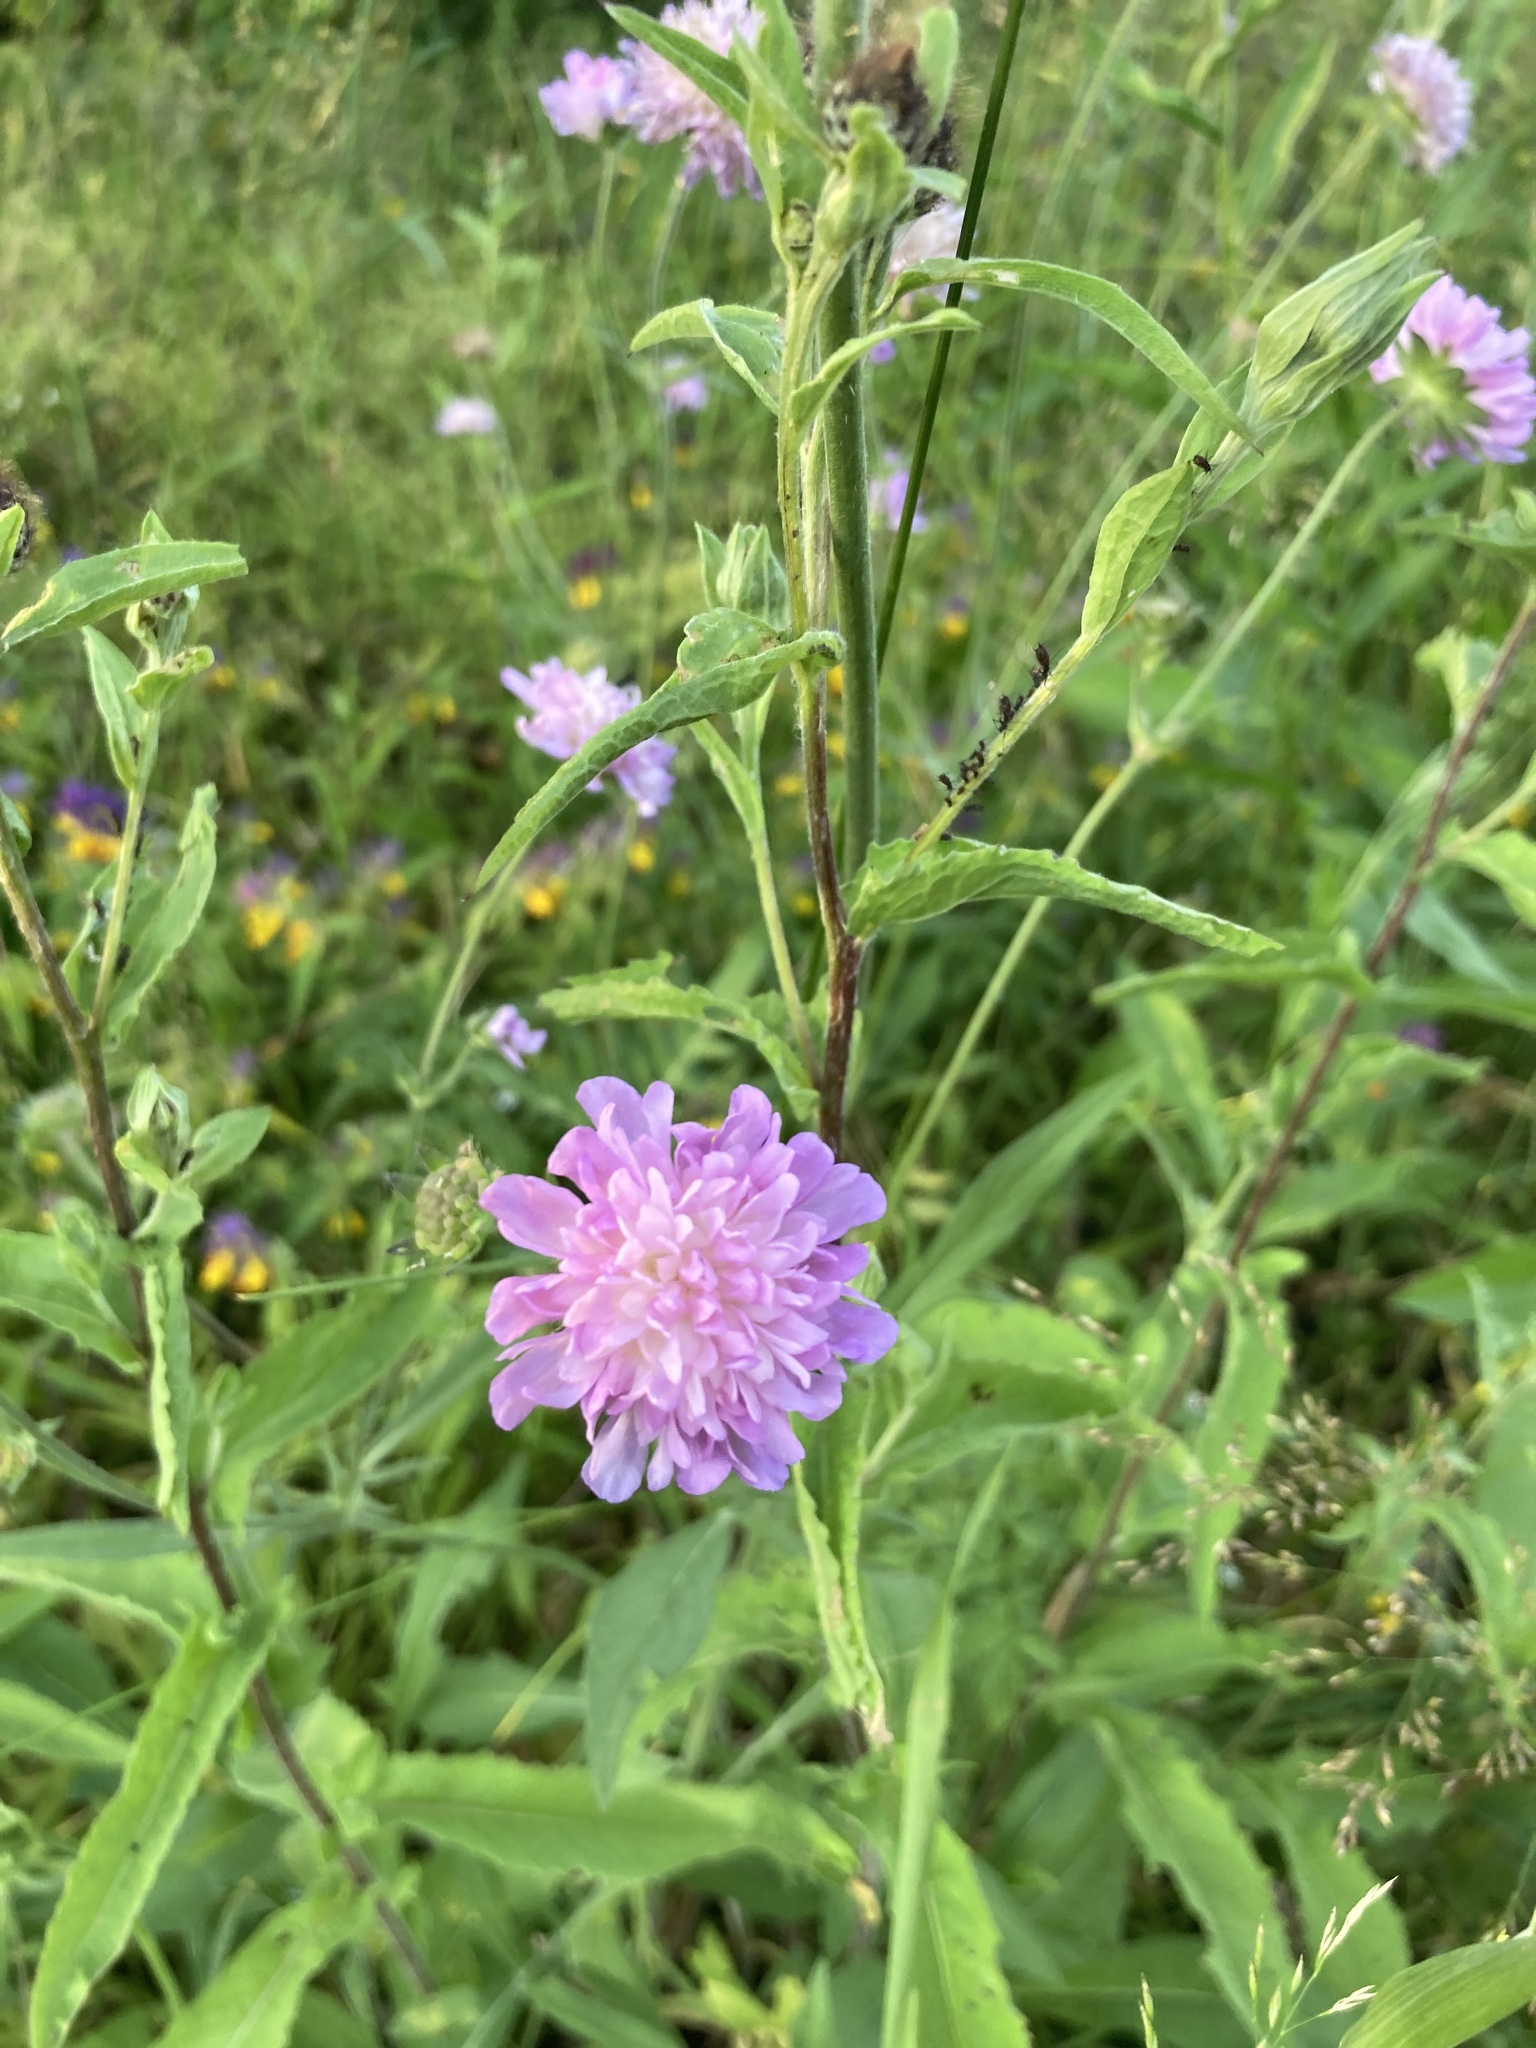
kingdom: Plantae
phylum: Tracheophyta
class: Magnoliopsida
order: Dipsacales
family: Caprifoliaceae
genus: Knautia
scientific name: Knautia arvensis
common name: Field scabiosa
